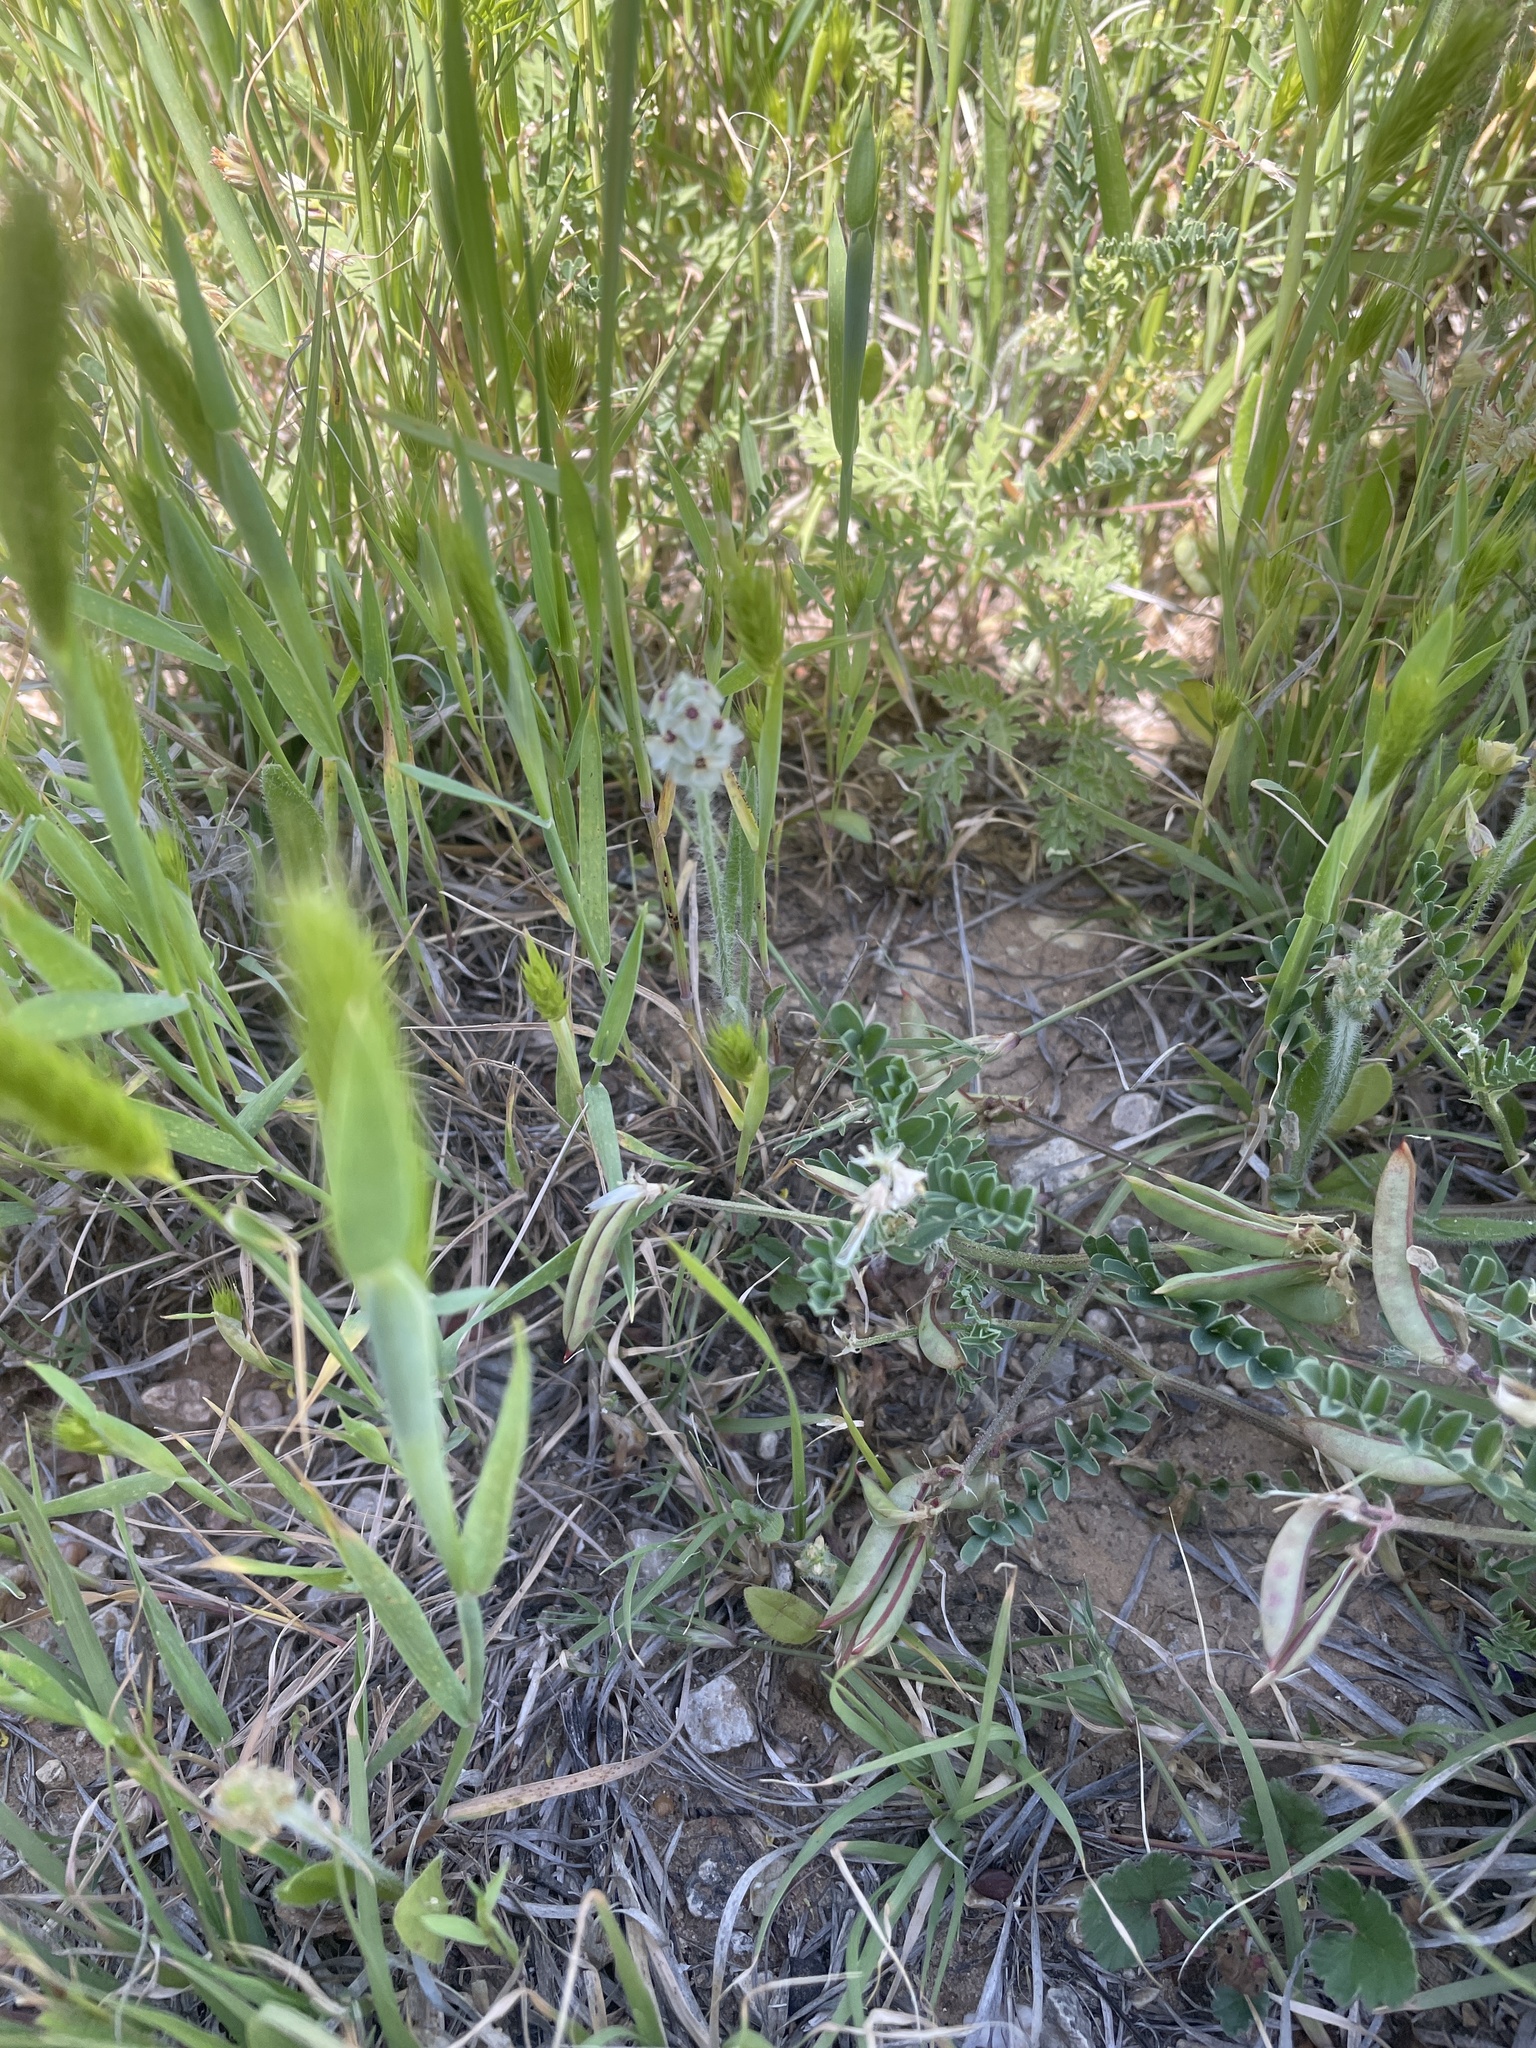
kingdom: Plantae
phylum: Tracheophyta
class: Magnoliopsida
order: Lamiales
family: Plantaginaceae
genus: Plantago
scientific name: Plantago helleri
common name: Heller's plantain
